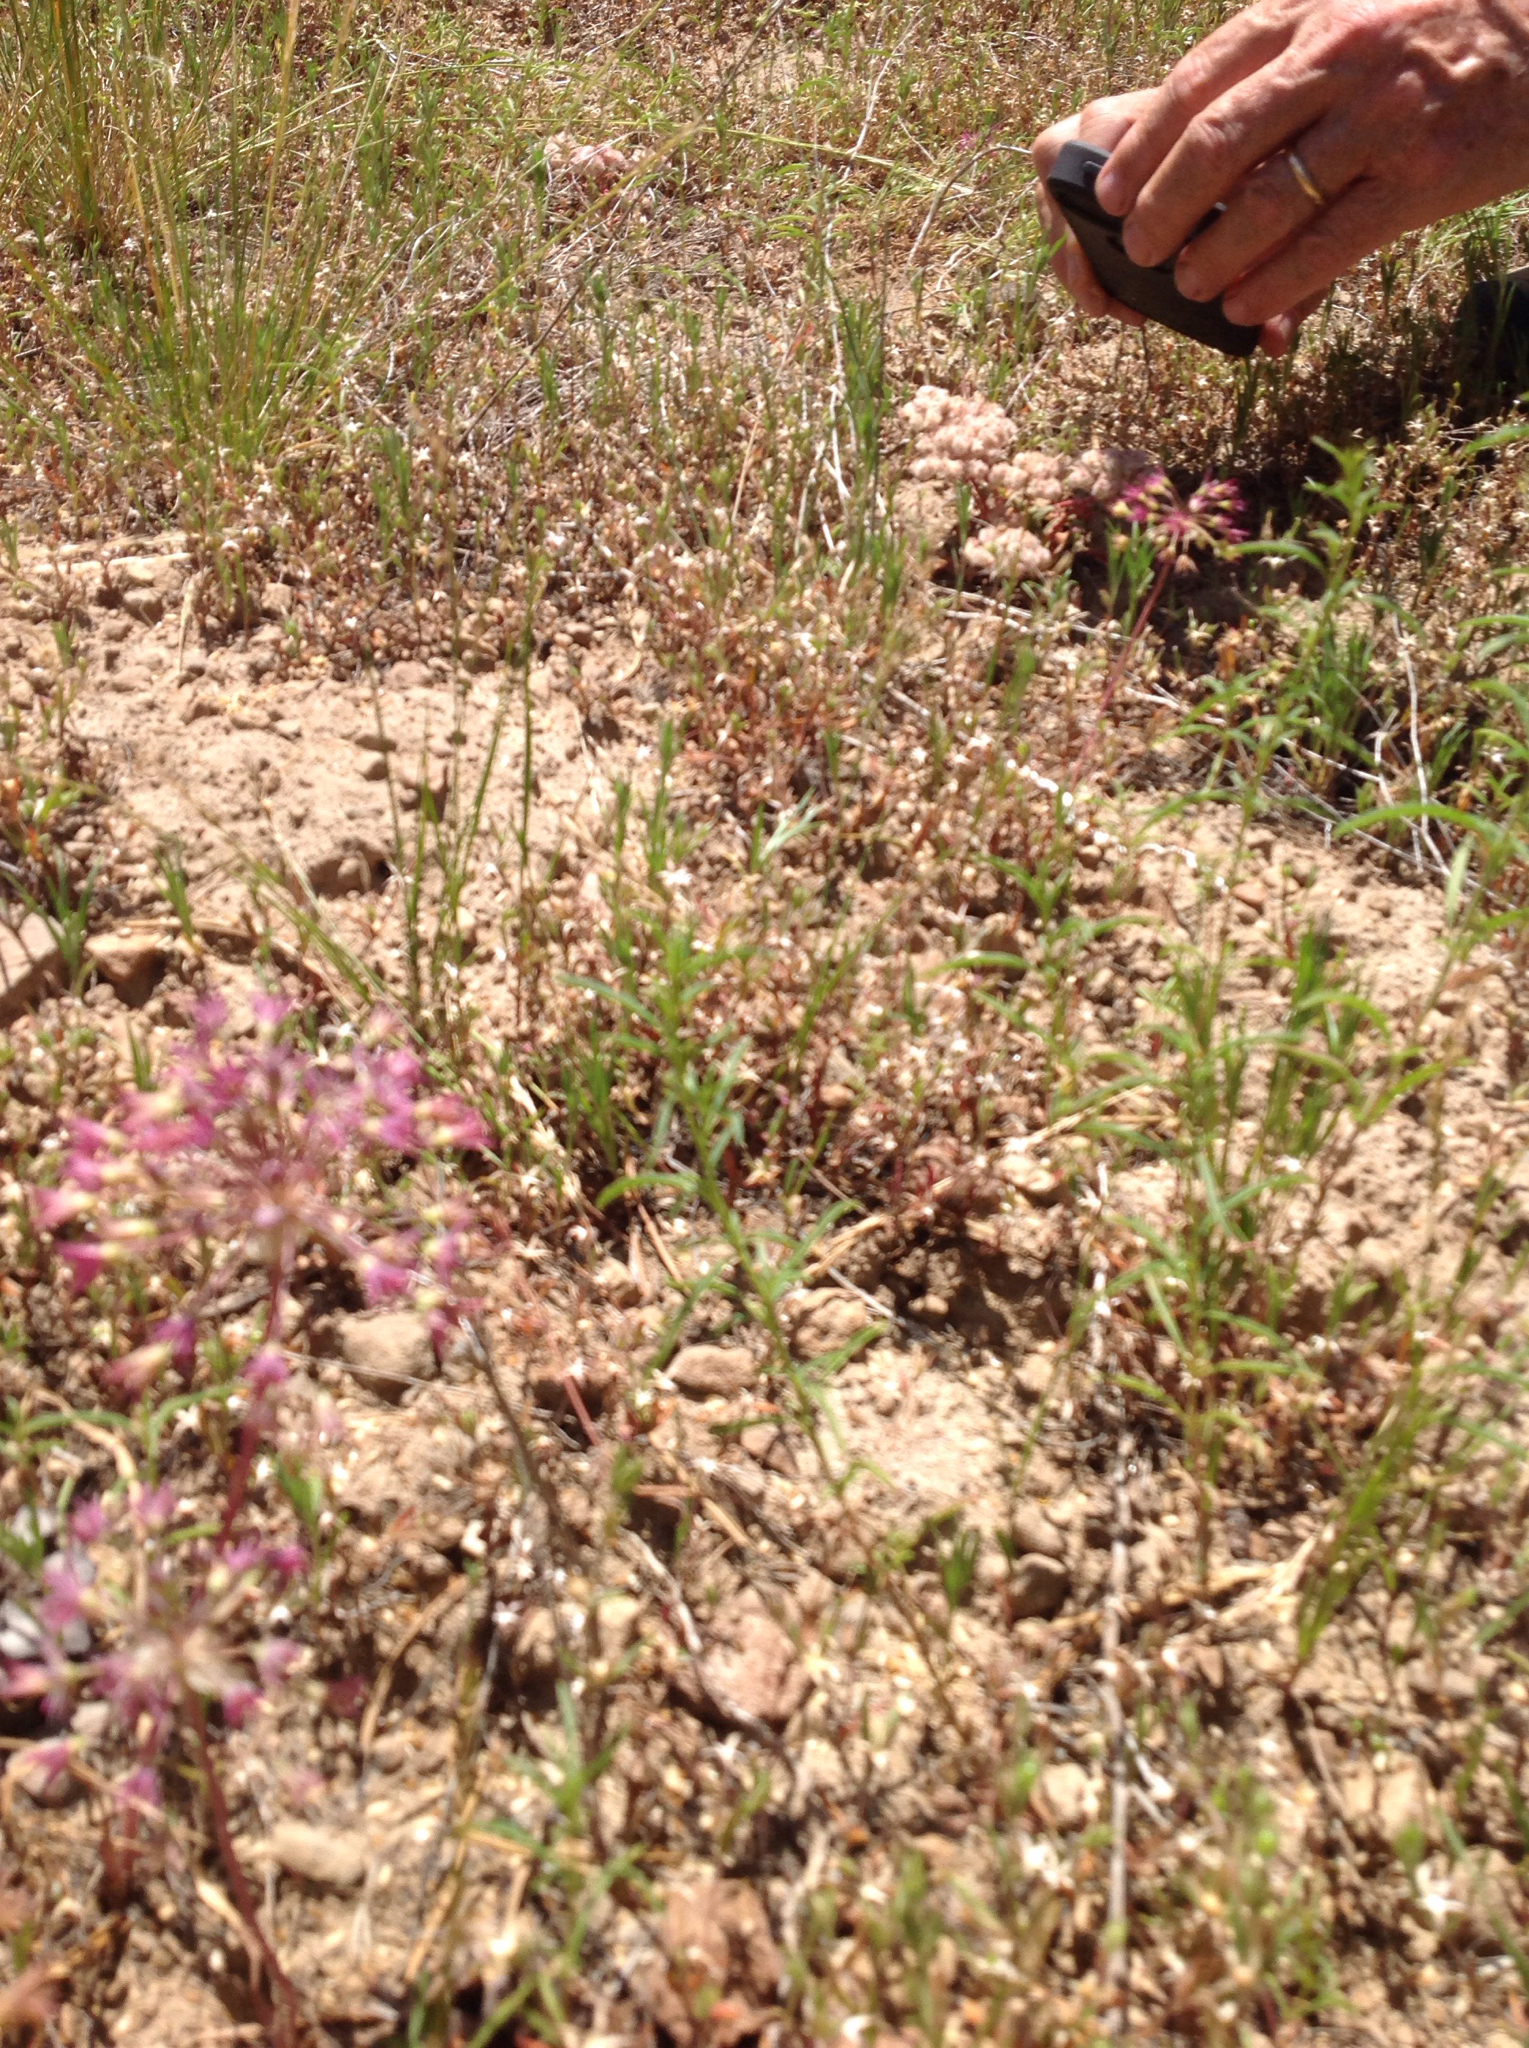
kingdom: Plantae
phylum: Tracheophyta
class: Liliopsida
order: Asparagales
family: Amaryllidaceae
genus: Allium
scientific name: Allium campanulatum
